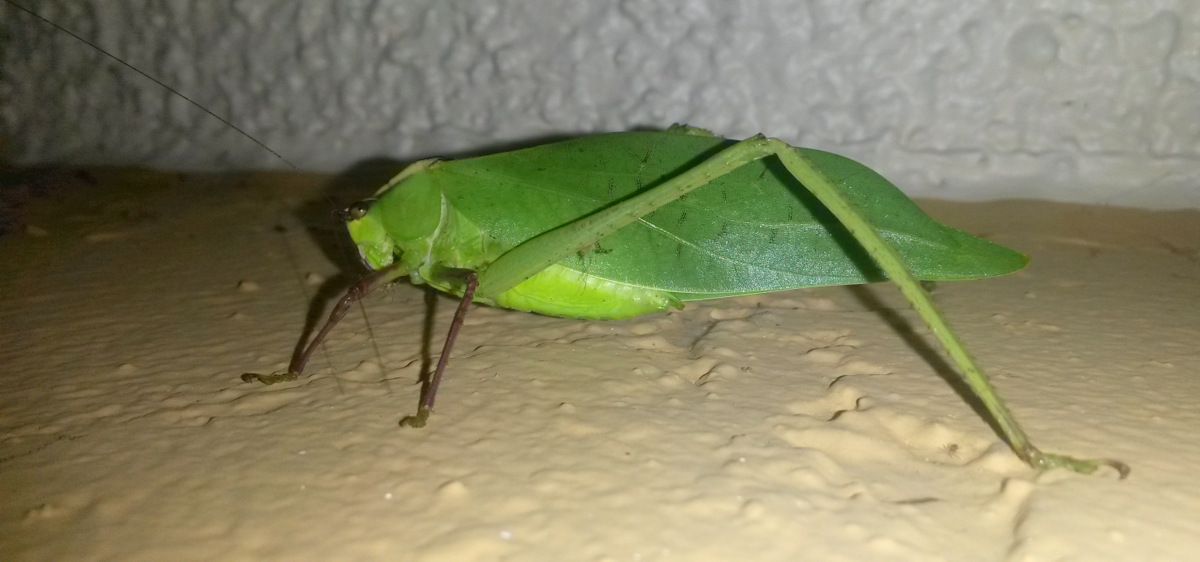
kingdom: Animalia
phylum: Arthropoda
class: Insecta
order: Orthoptera
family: Tettigoniidae
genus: Stilpnochlora
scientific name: Stilpnochlora couloniana
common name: Giant katydid
